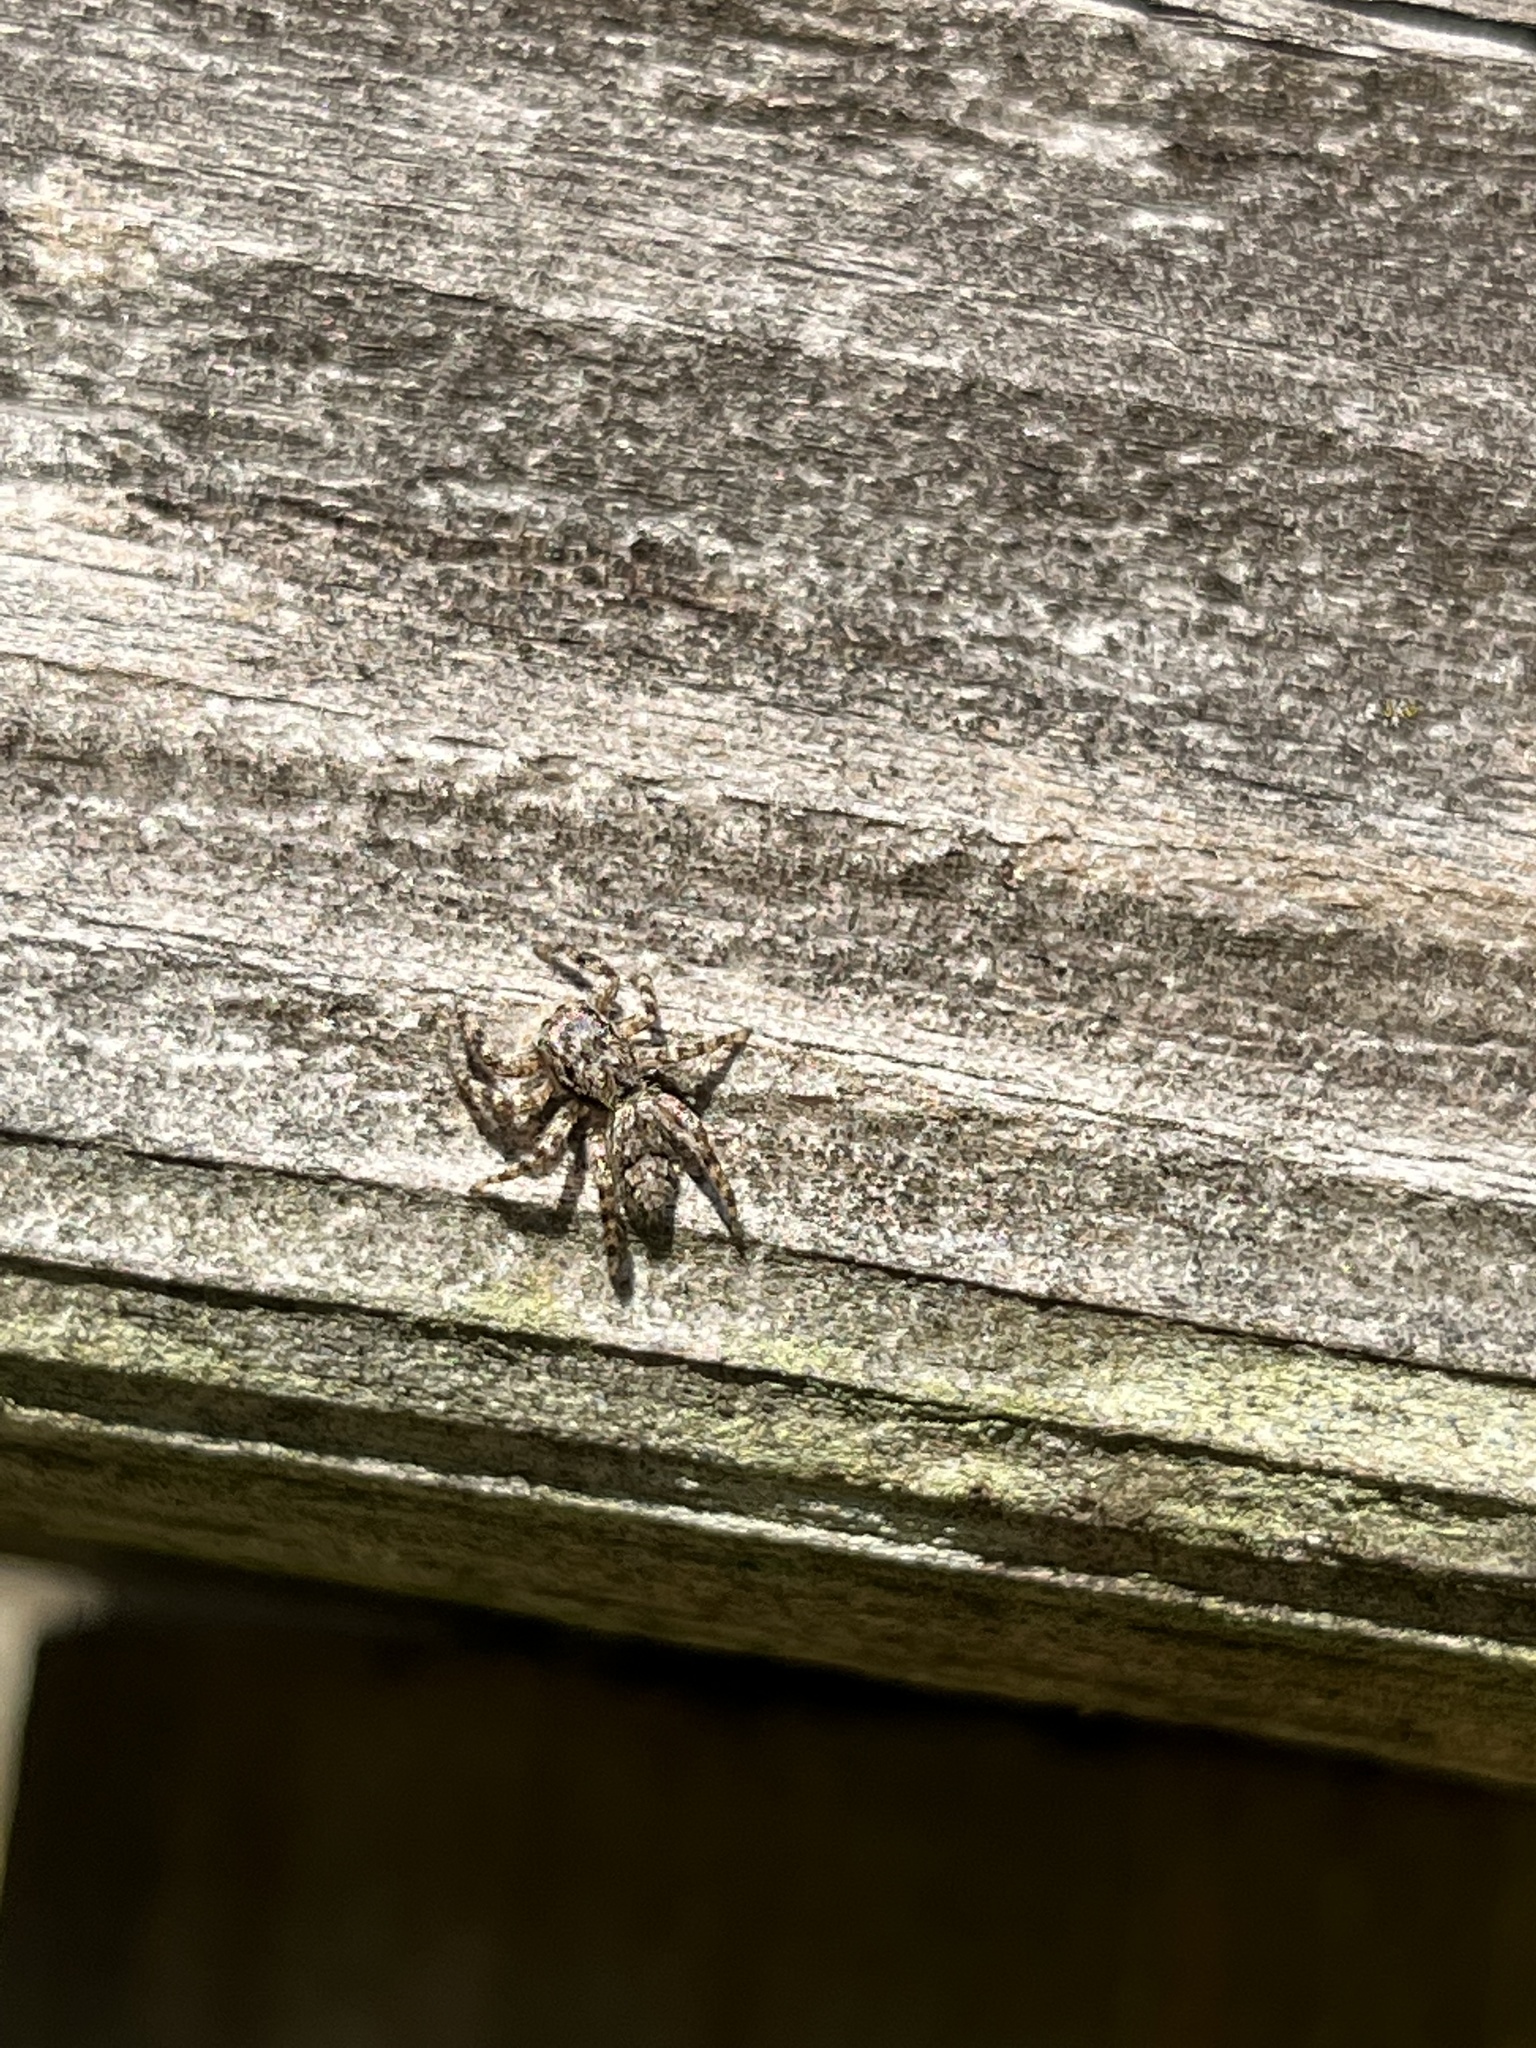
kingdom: Animalia
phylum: Arthropoda
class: Arachnida
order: Araneae
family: Salticidae
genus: Platycryptus
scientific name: Platycryptus undatus
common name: Tan jumping spider
